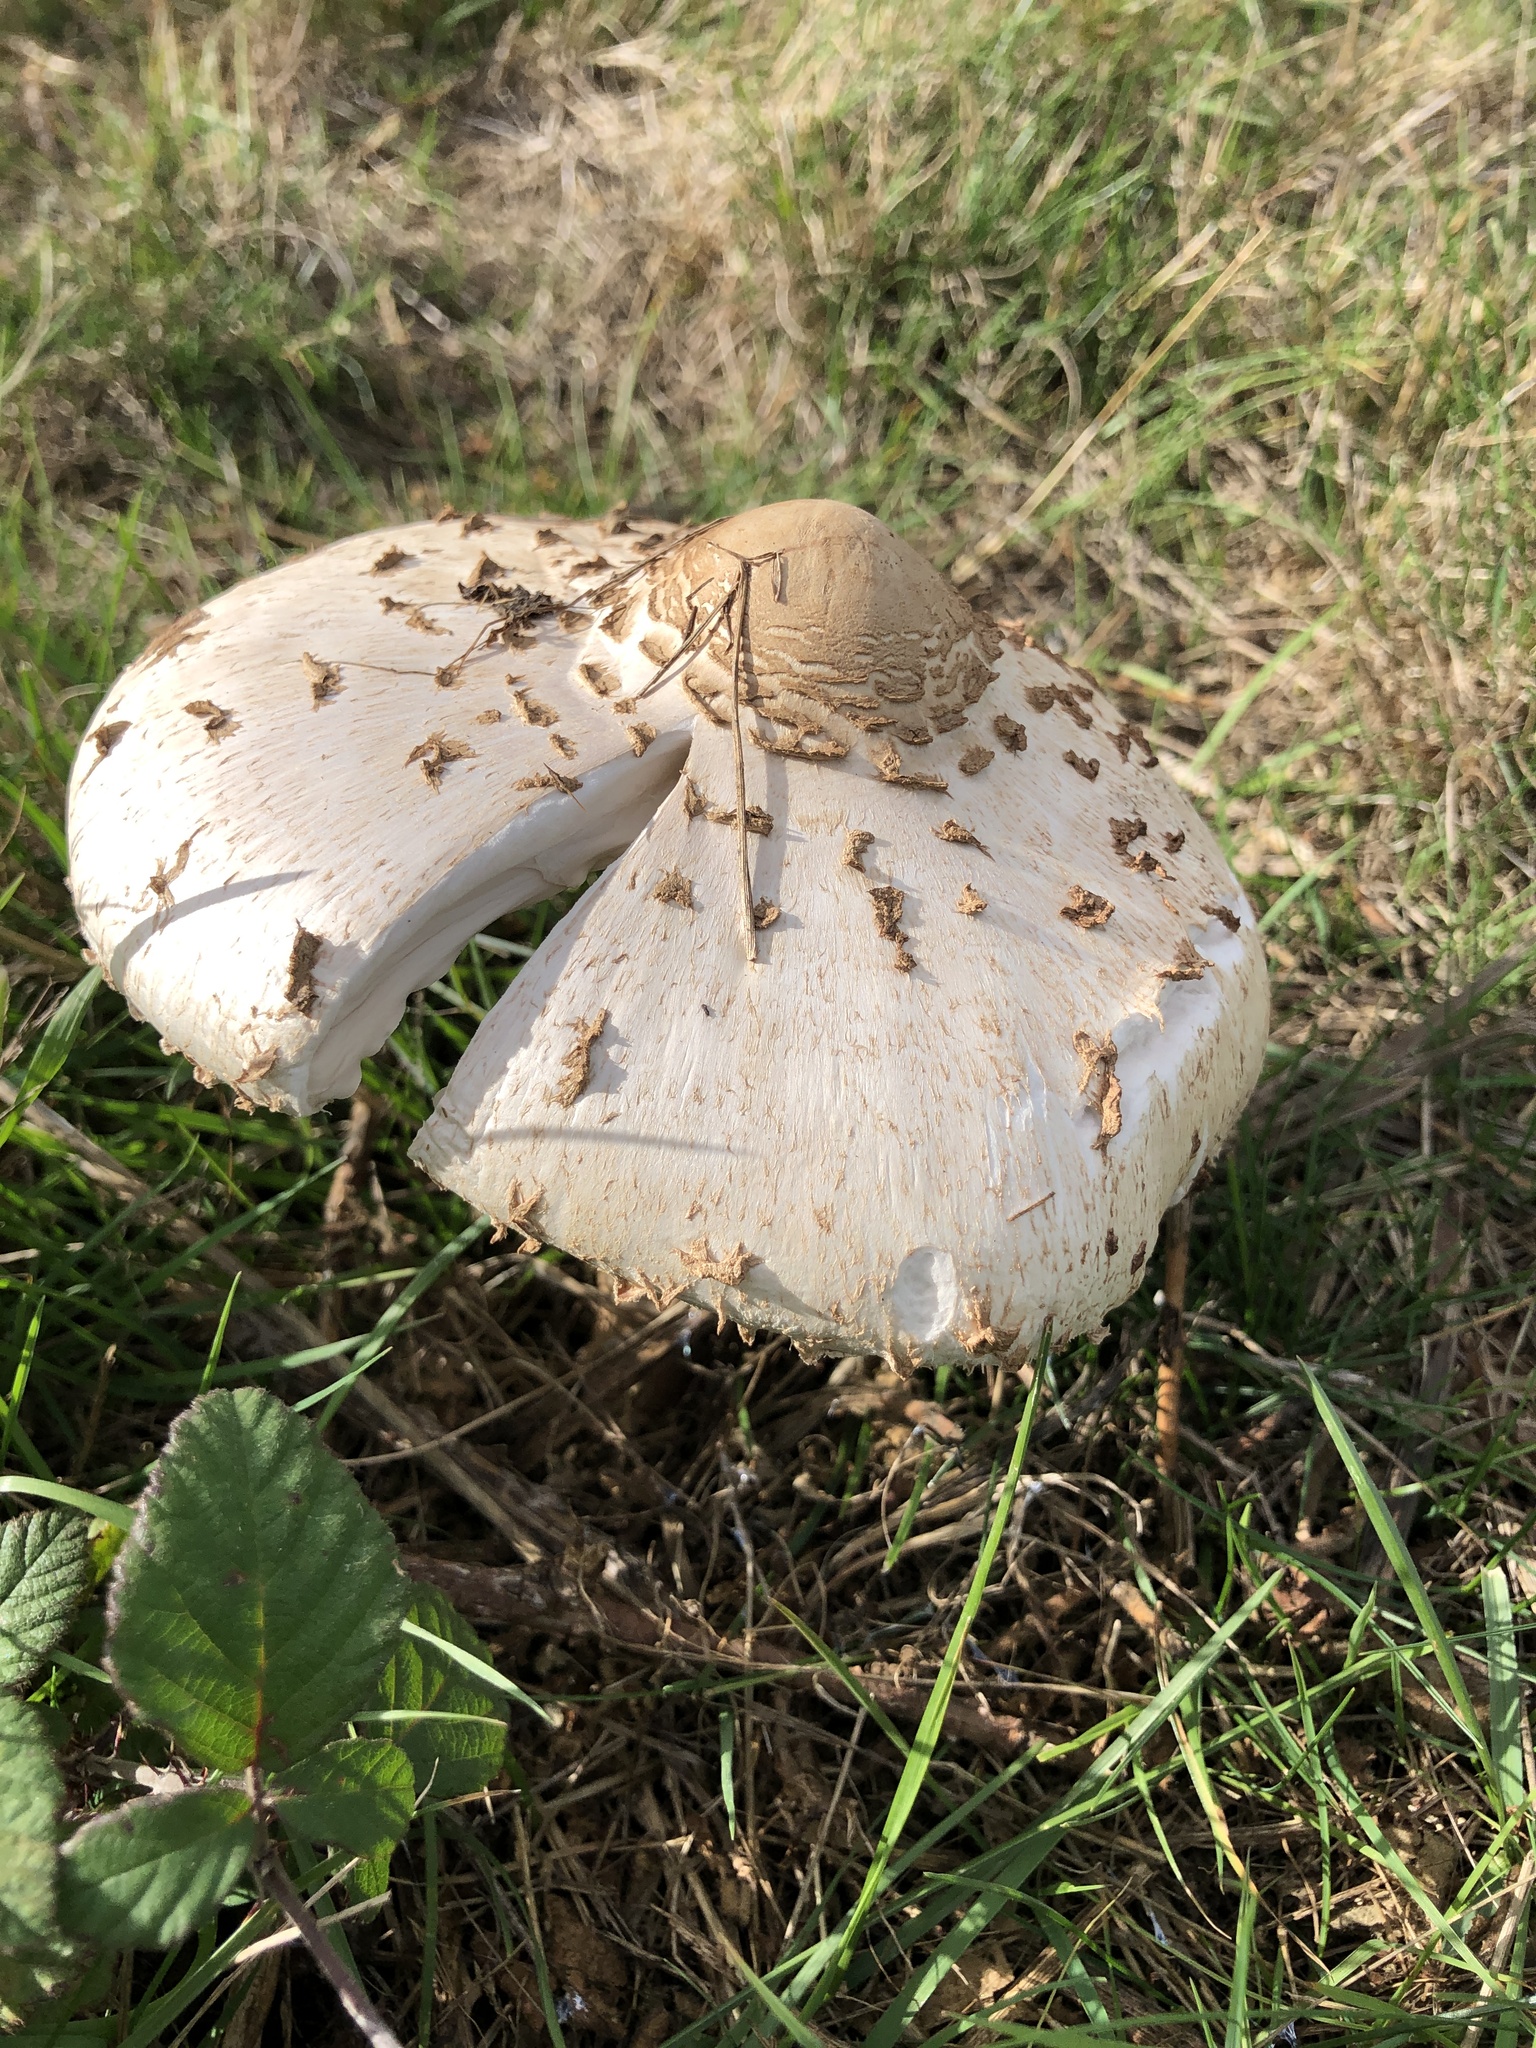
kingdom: Fungi
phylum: Basidiomycota
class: Agaricomycetes
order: Agaricales
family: Agaricaceae
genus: Macrolepiota
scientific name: Macrolepiota procera
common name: Parasol
